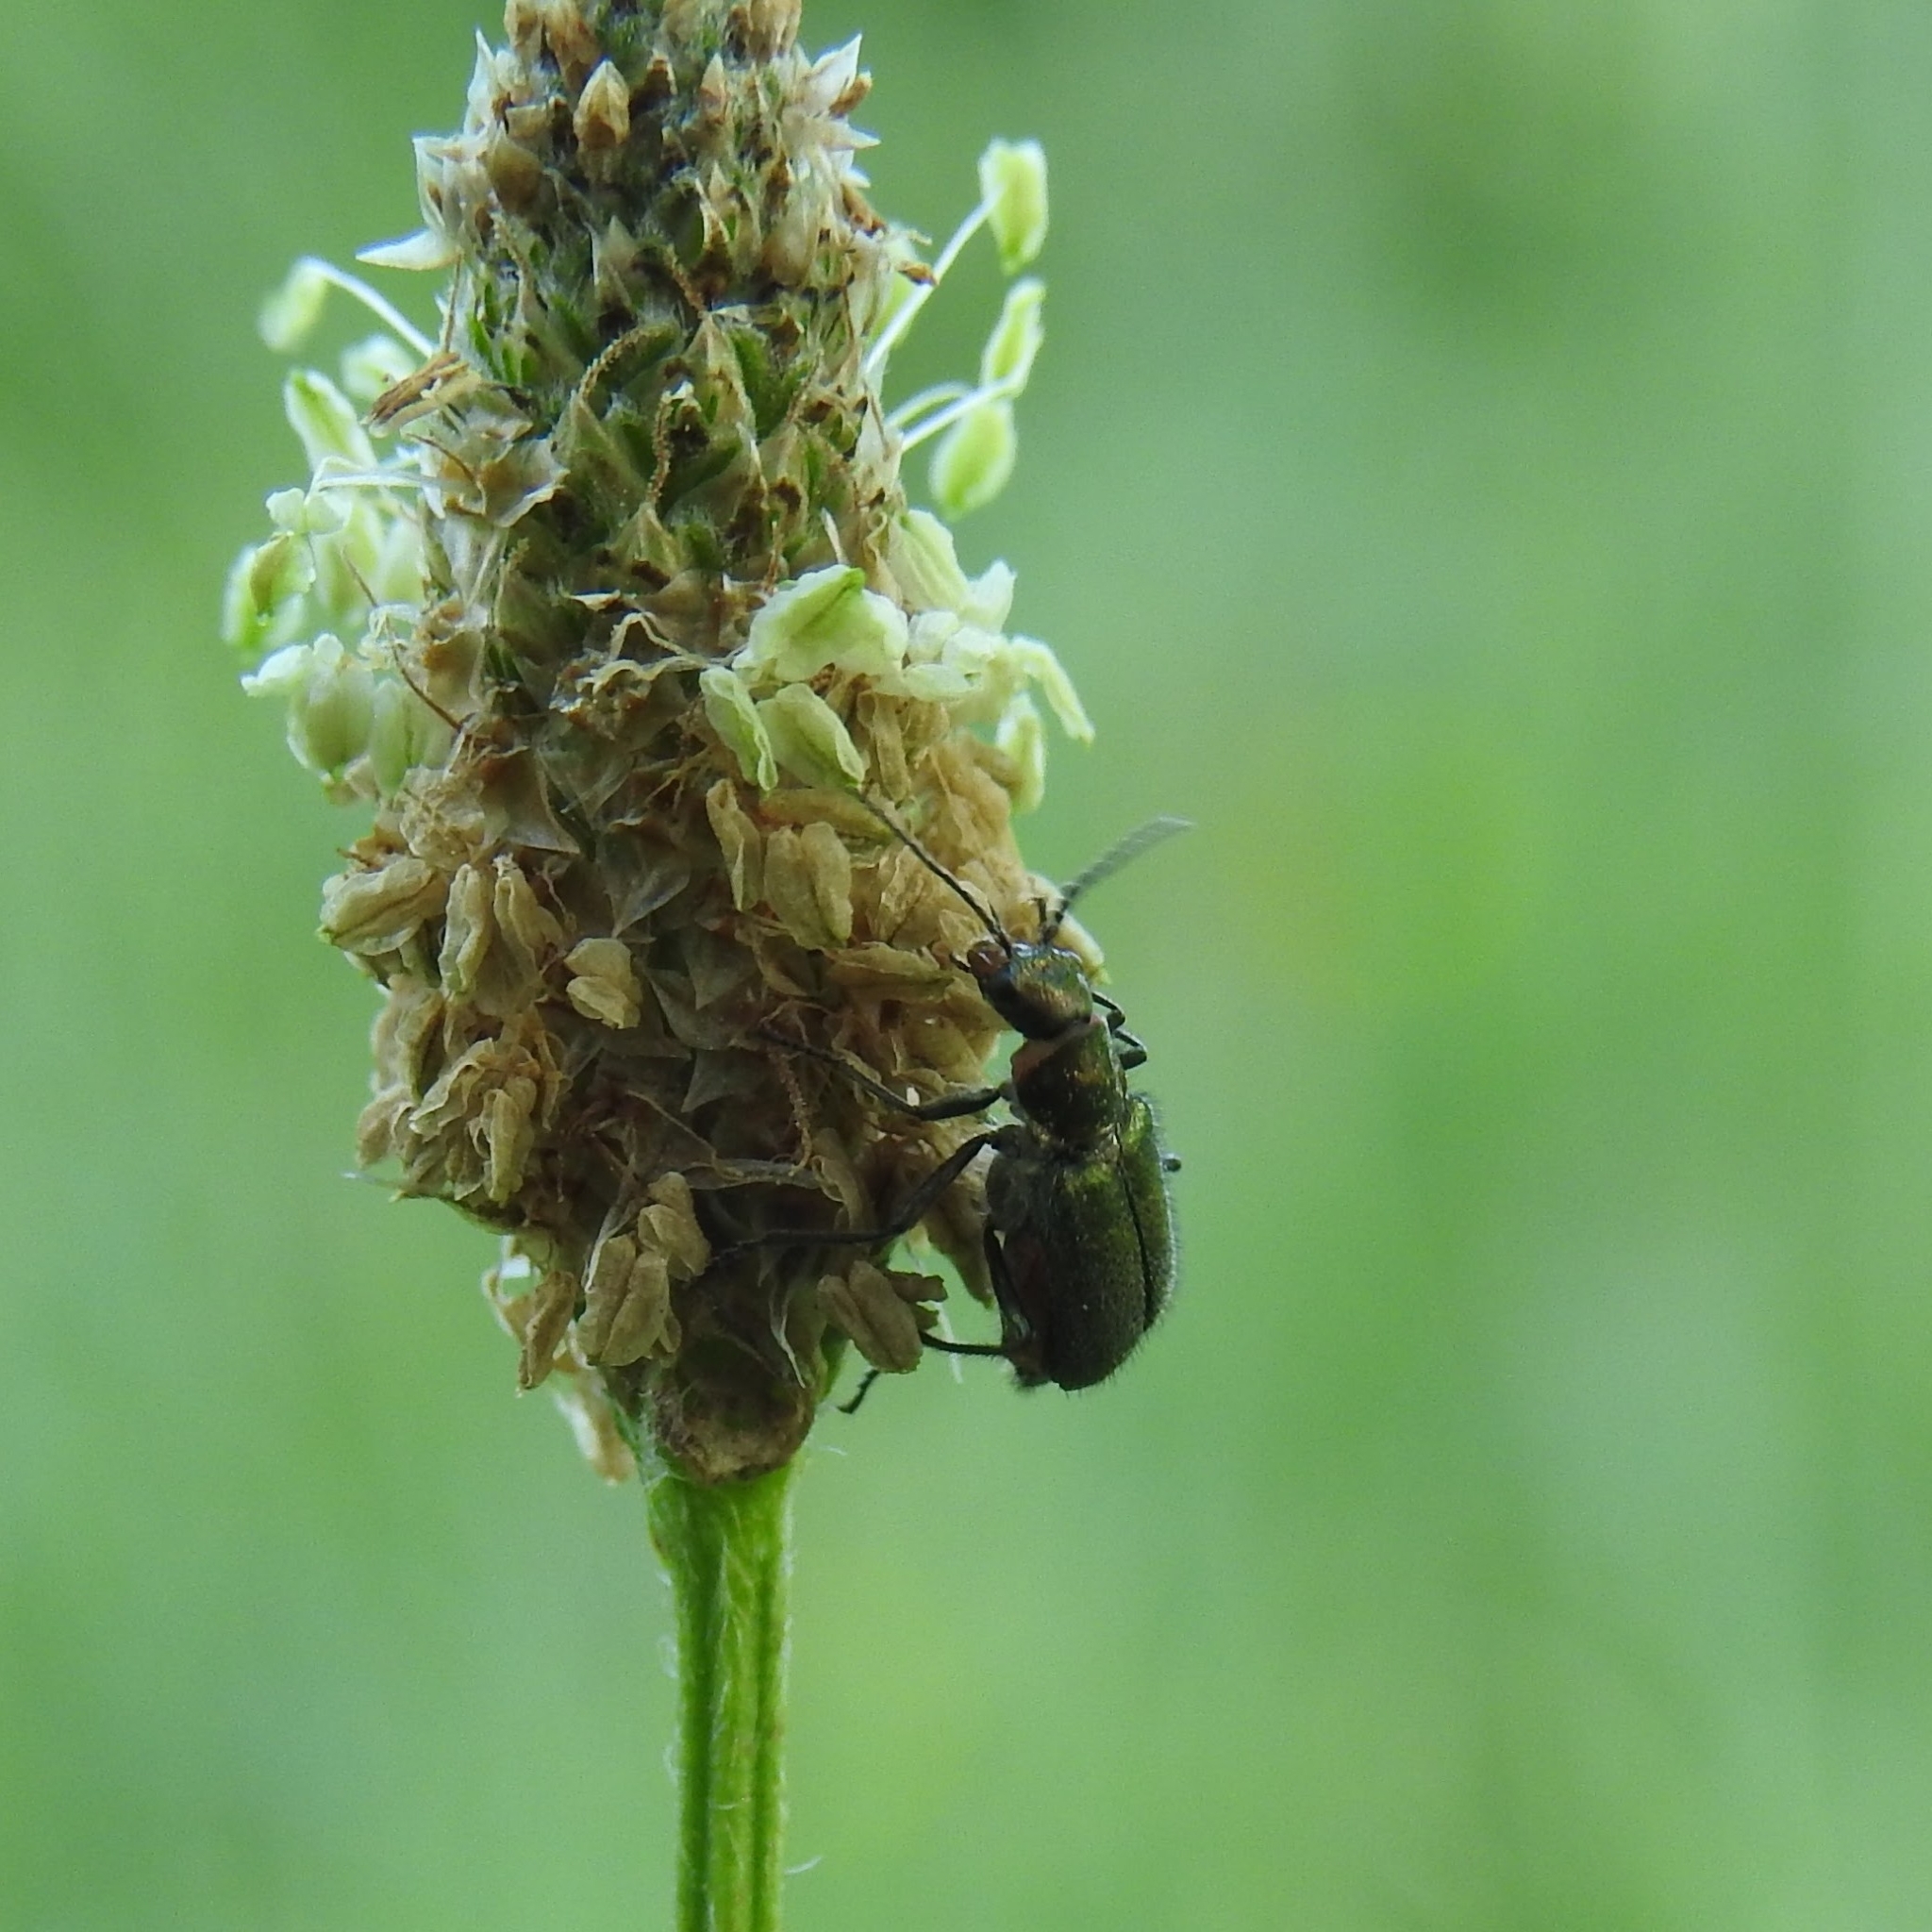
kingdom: Animalia
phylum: Arthropoda
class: Insecta
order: Coleoptera
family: Melyridae
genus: Malachius
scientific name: Malachius bipustulatus
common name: Malachite beetle
